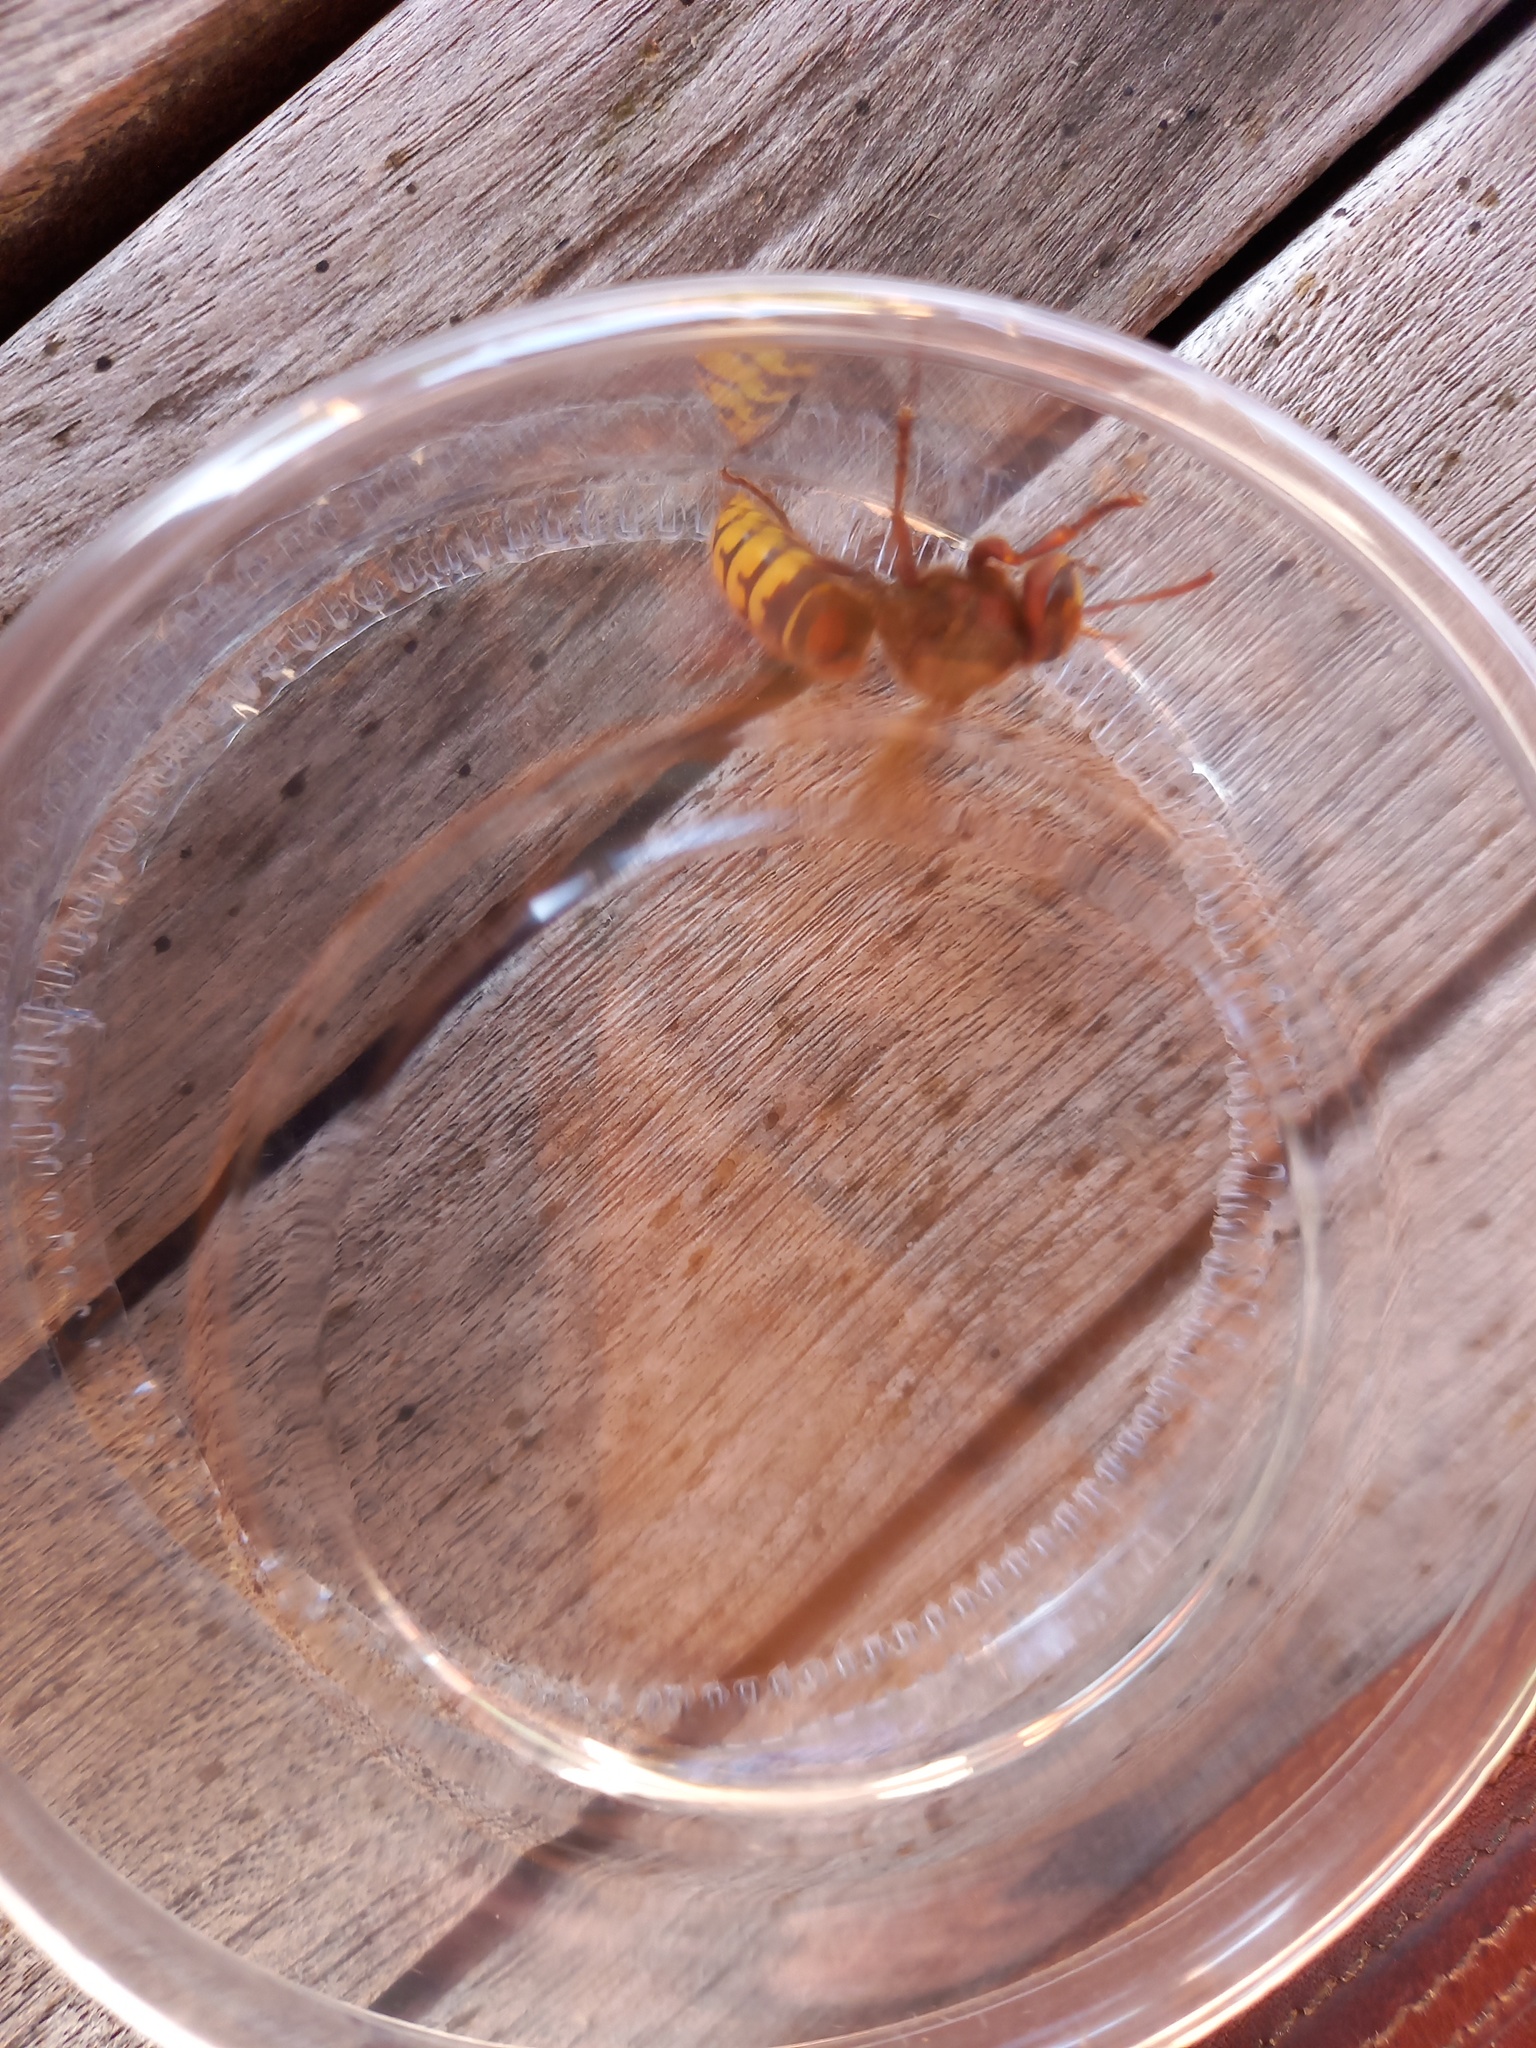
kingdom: Animalia
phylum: Arthropoda
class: Insecta
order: Hymenoptera
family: Vespidae
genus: Vespa
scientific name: Vespa crabro
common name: Hornet
